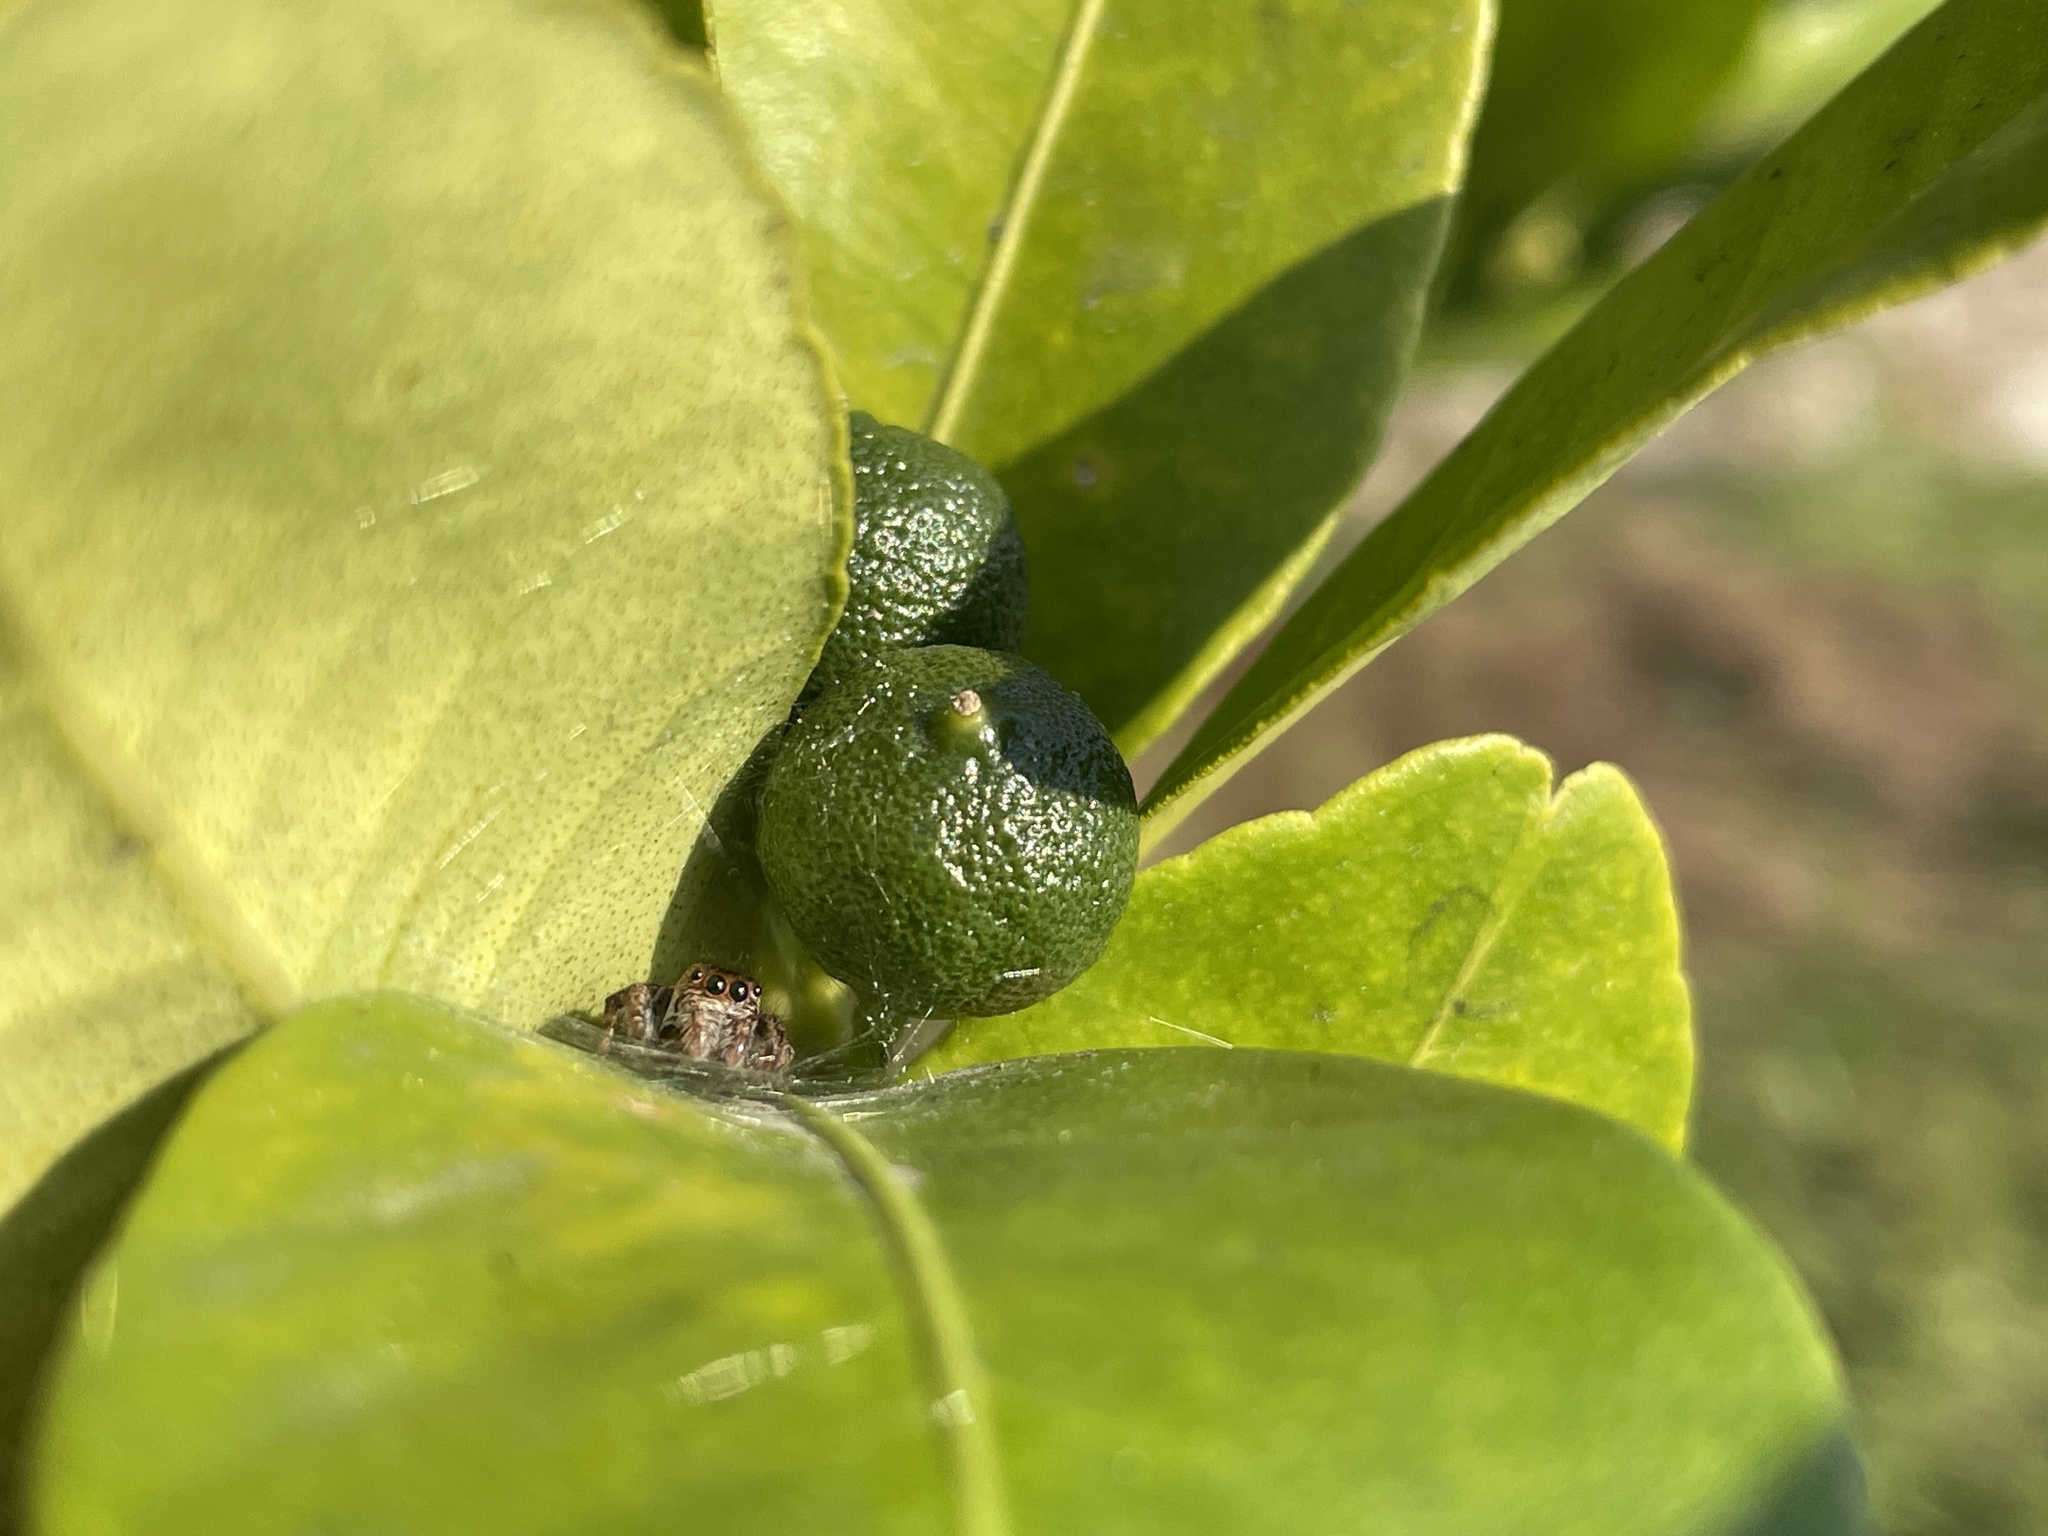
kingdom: Animalia
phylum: Arthropoda
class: Arachnida
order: Araneae
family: Salticidae
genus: Carrhotus
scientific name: Carrhotus viduus
